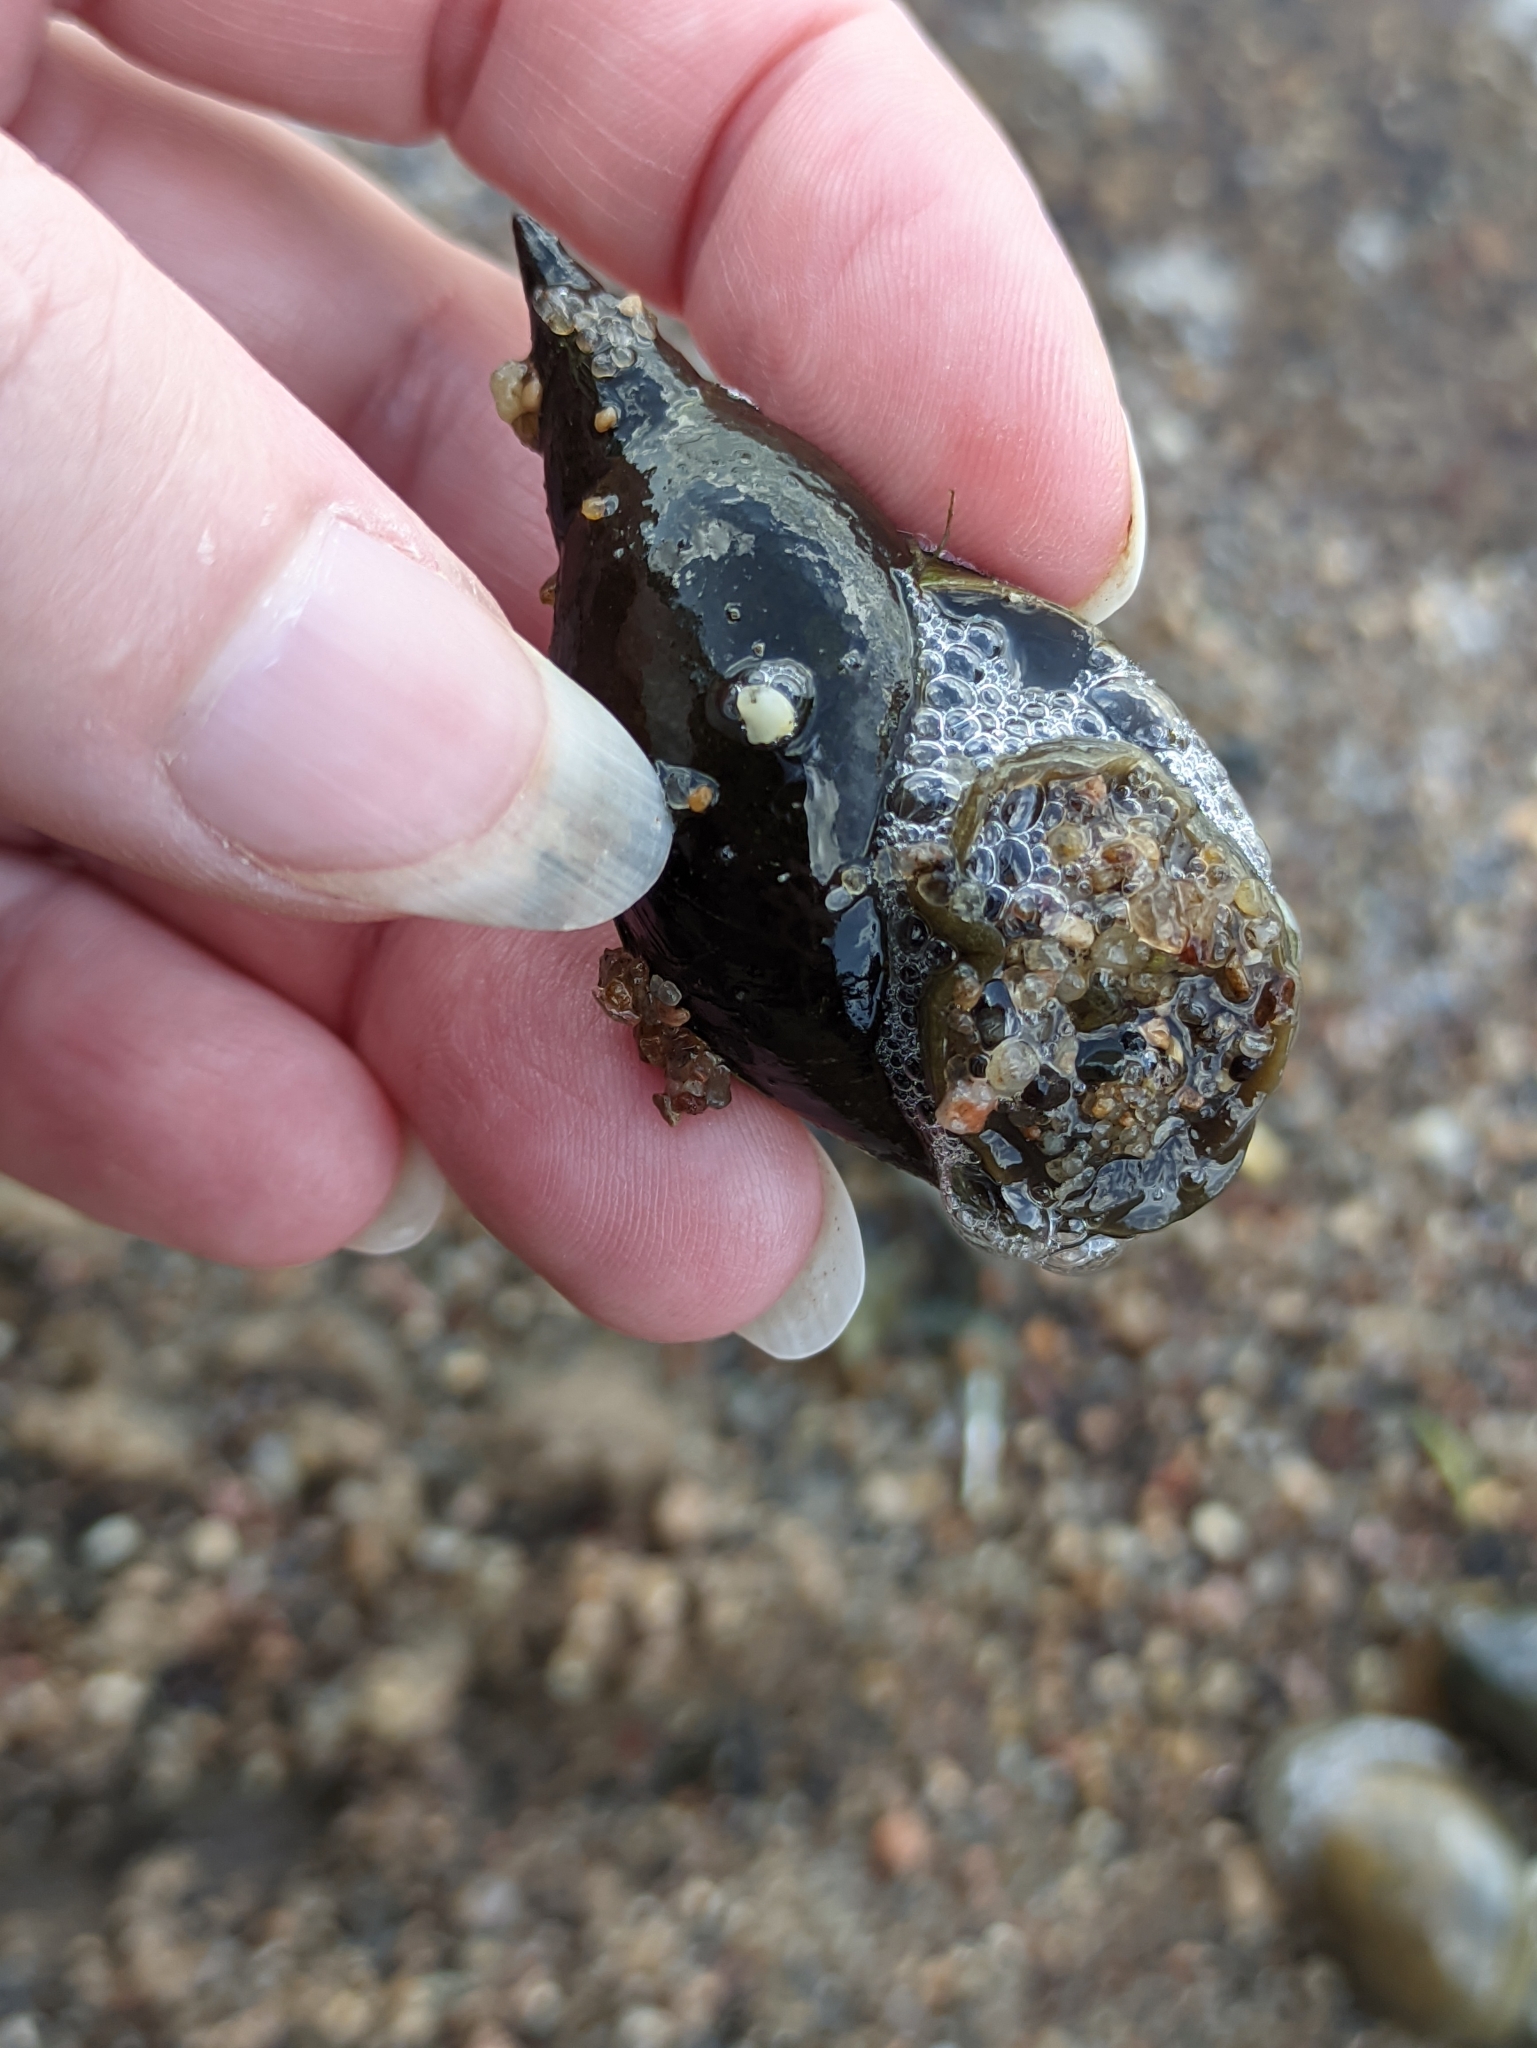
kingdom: Animalia
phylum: Mollusca
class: Gastropoda
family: Lymnaeidae
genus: Lymnaea
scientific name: Lymnaea stagnalis
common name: Great pond snail
